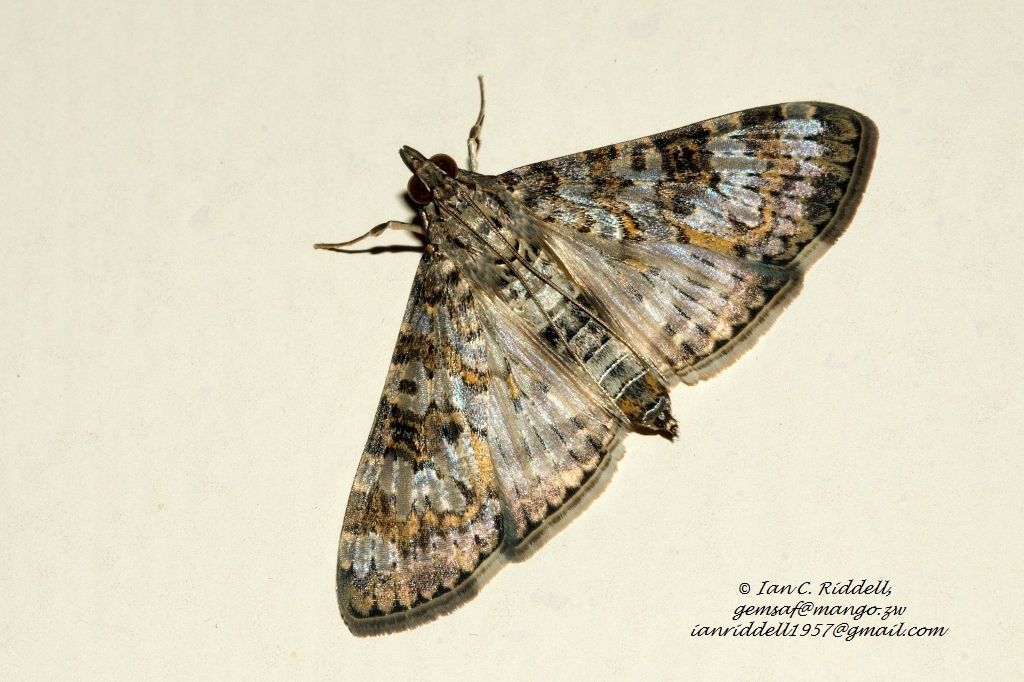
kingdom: Animalia
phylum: Arthropoda
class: Insecta
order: Lepidoptera
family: Crambidae
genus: Dysallacta
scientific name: Dysallacta negatalis
